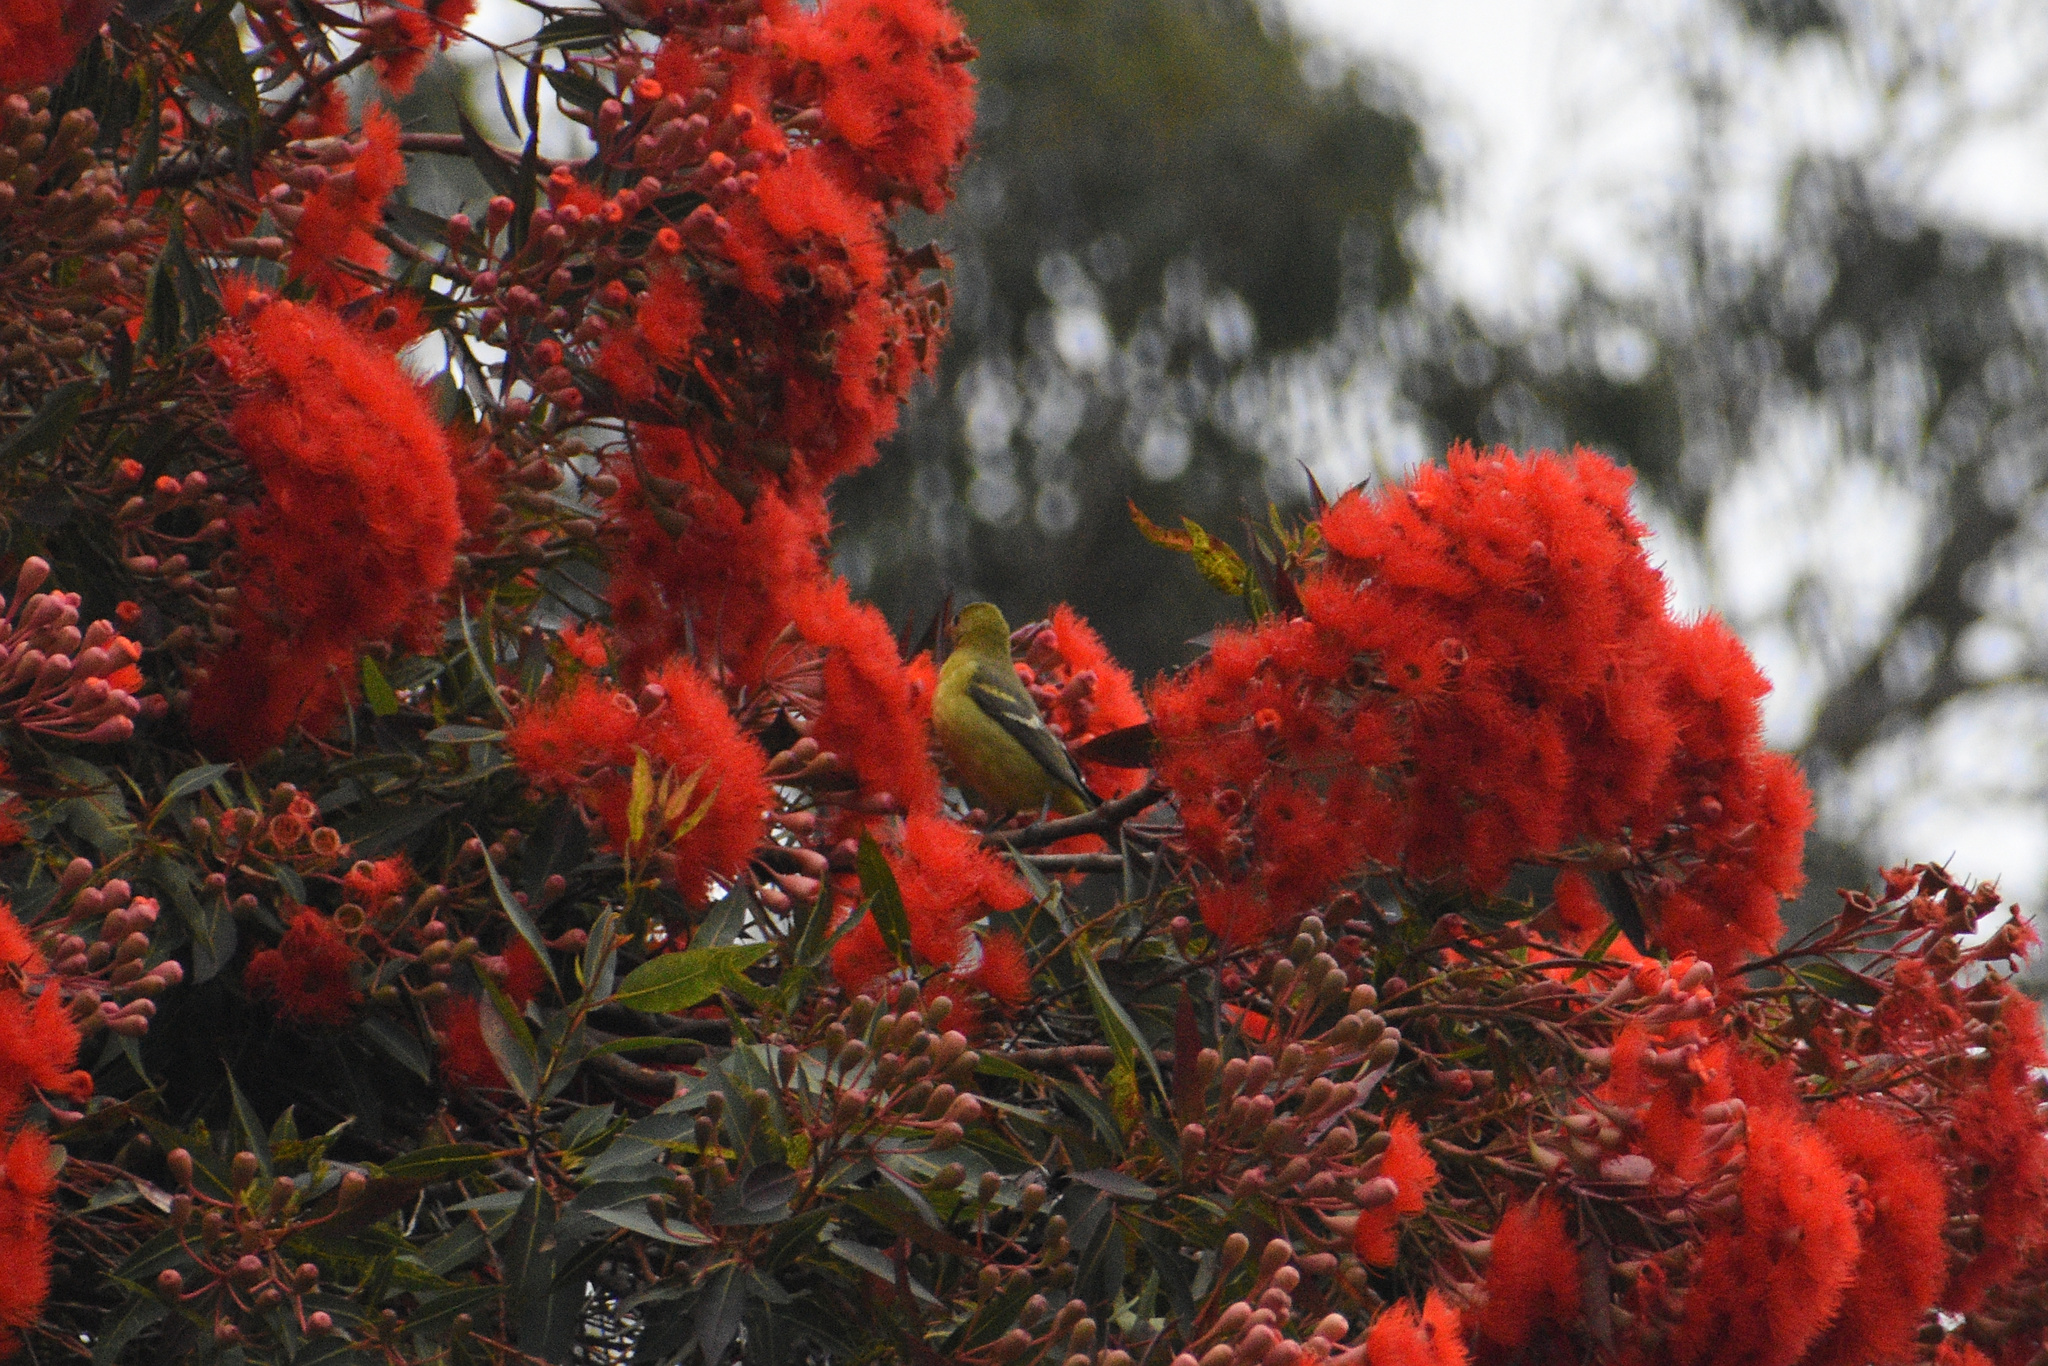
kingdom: Animalia
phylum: Chordata
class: Aves
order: Passeriformes
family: Cardinalidae
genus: Piranga
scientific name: Piranga ludoviciana
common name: Western tanager
